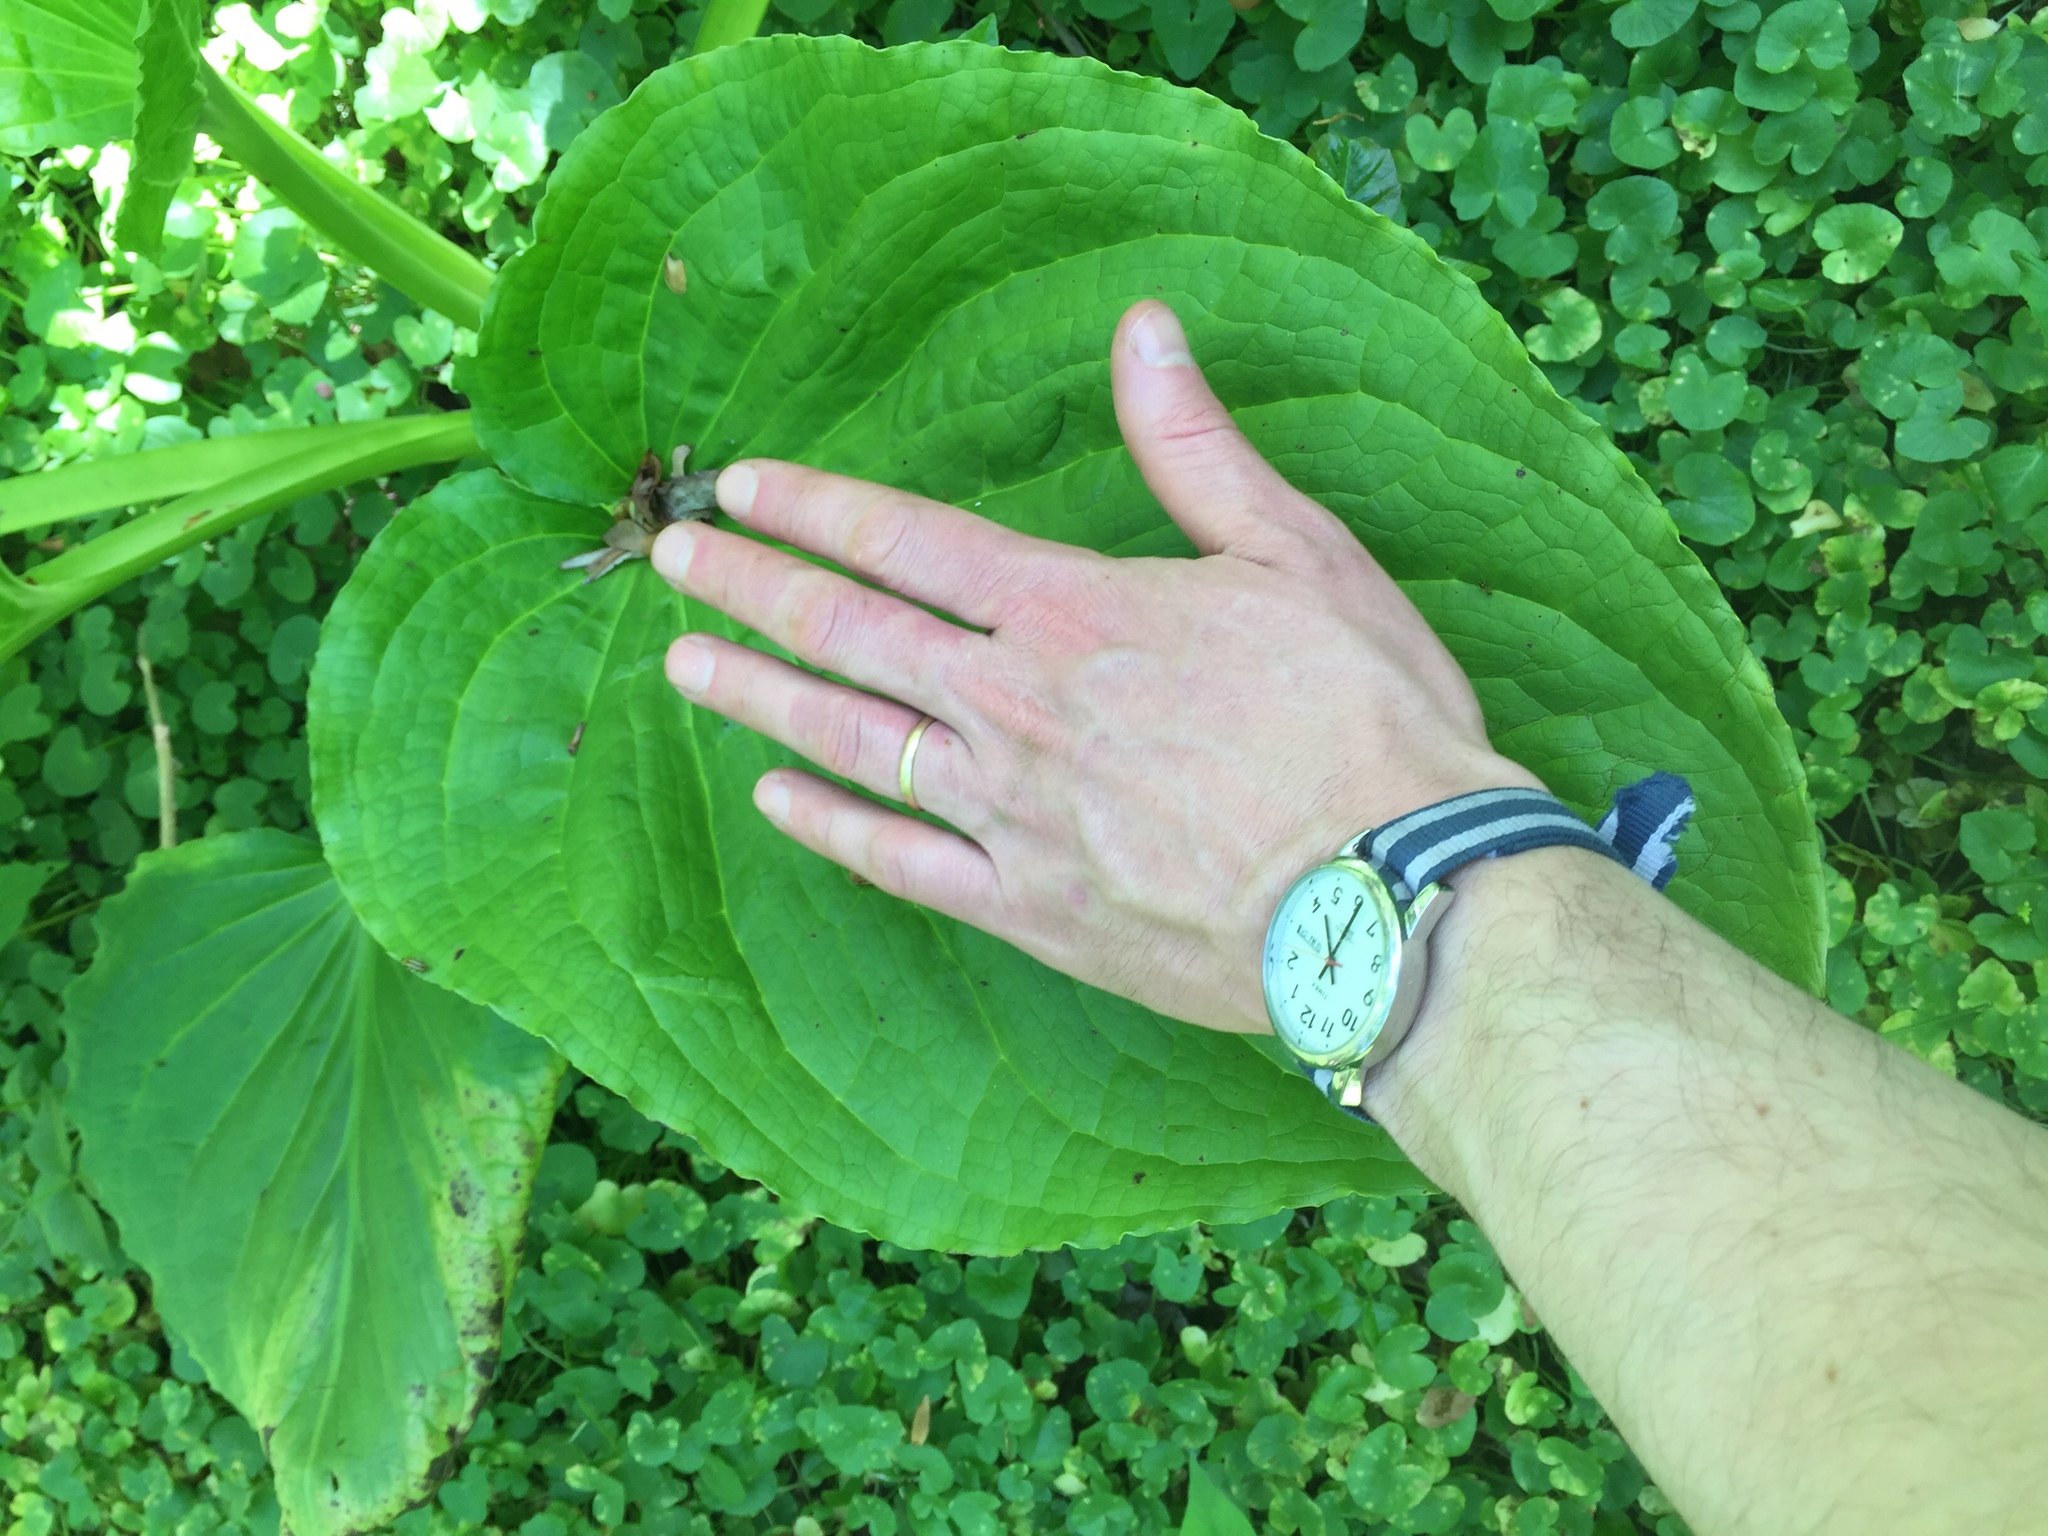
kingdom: Plantae
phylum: Tracheophyta
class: Liliopsida
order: Alismatales
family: Araceae
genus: Symplocarpus
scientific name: Symplocarpus foetidus
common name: Eastern skunk cabbage
